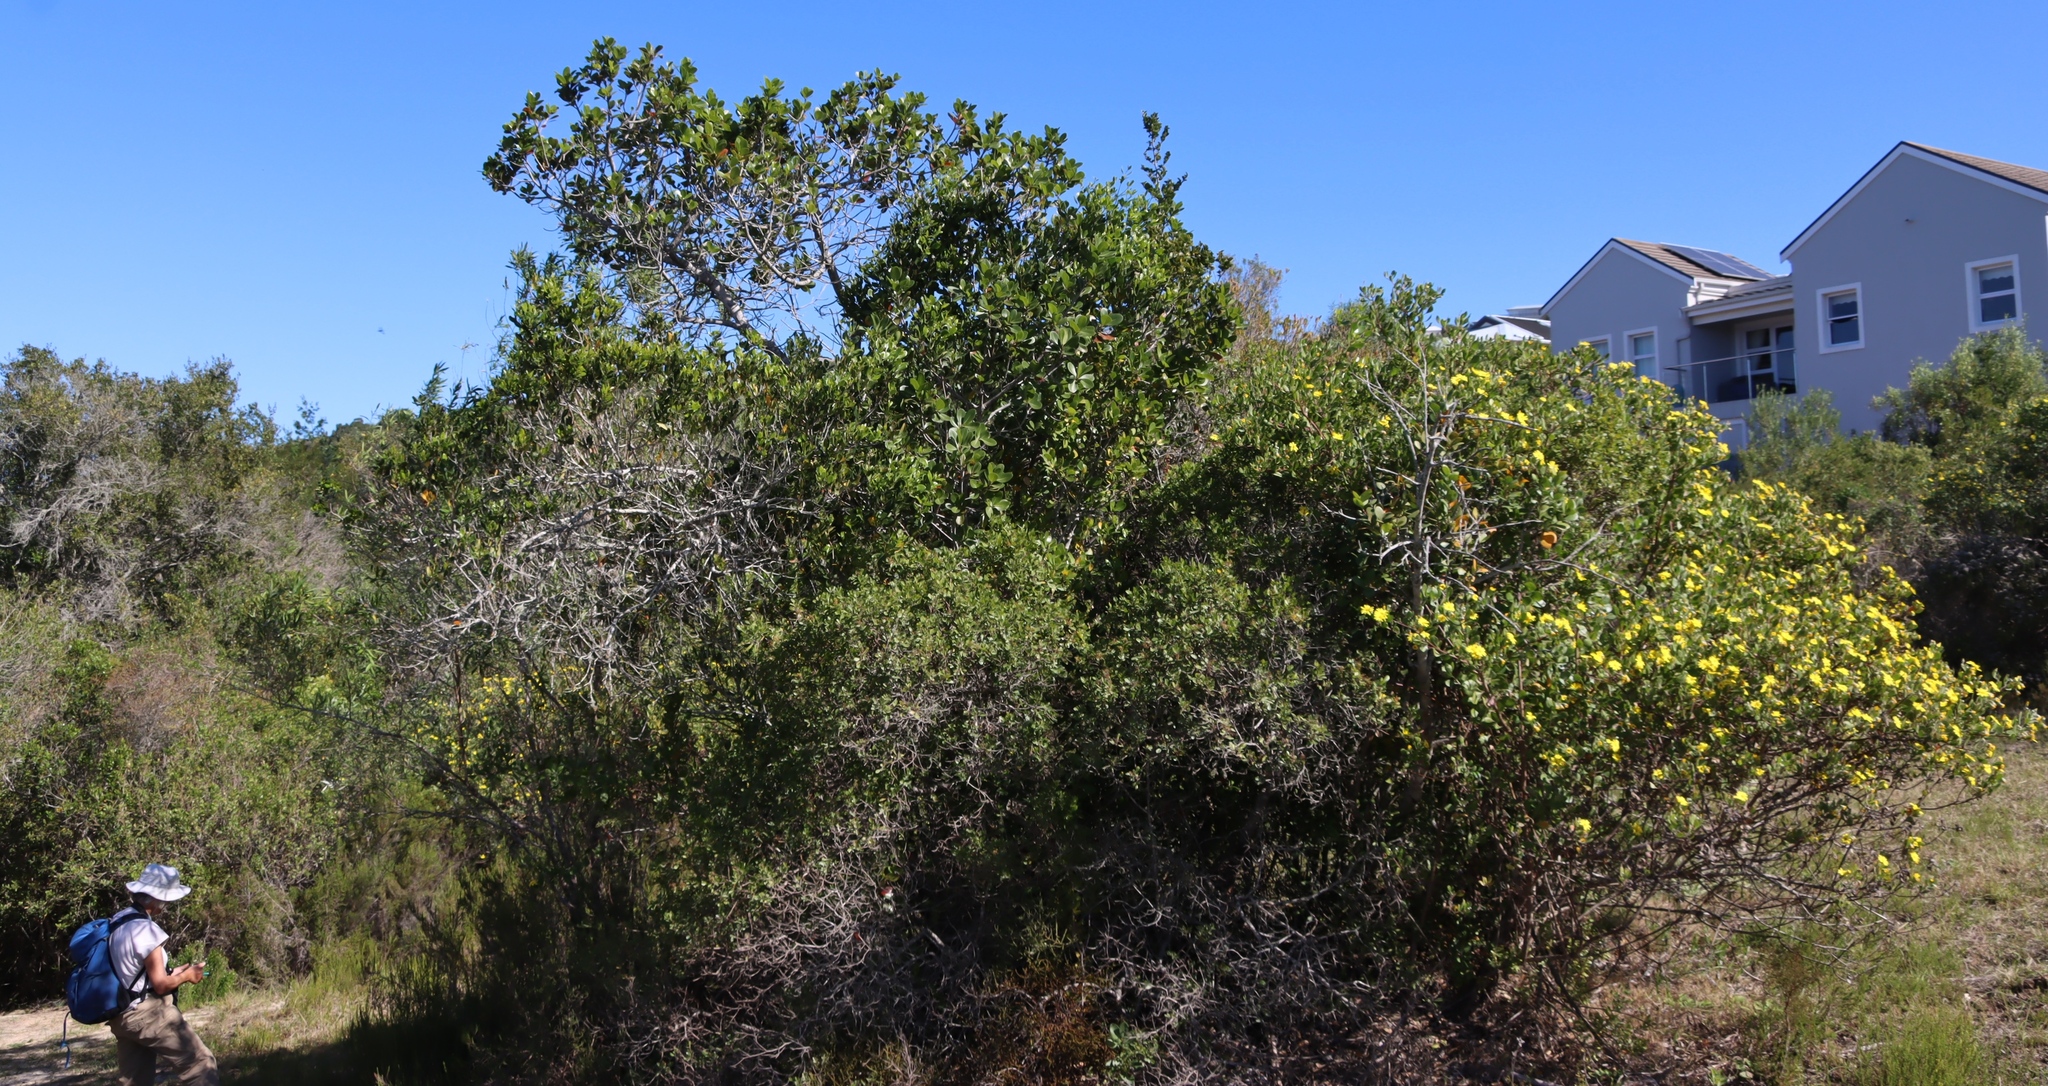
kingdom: Plantae
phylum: Tracheophyta
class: Magnoliopsida
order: Ericales
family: Sapotaceae
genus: Sideroxylon
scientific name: Sideroxylon inerme
